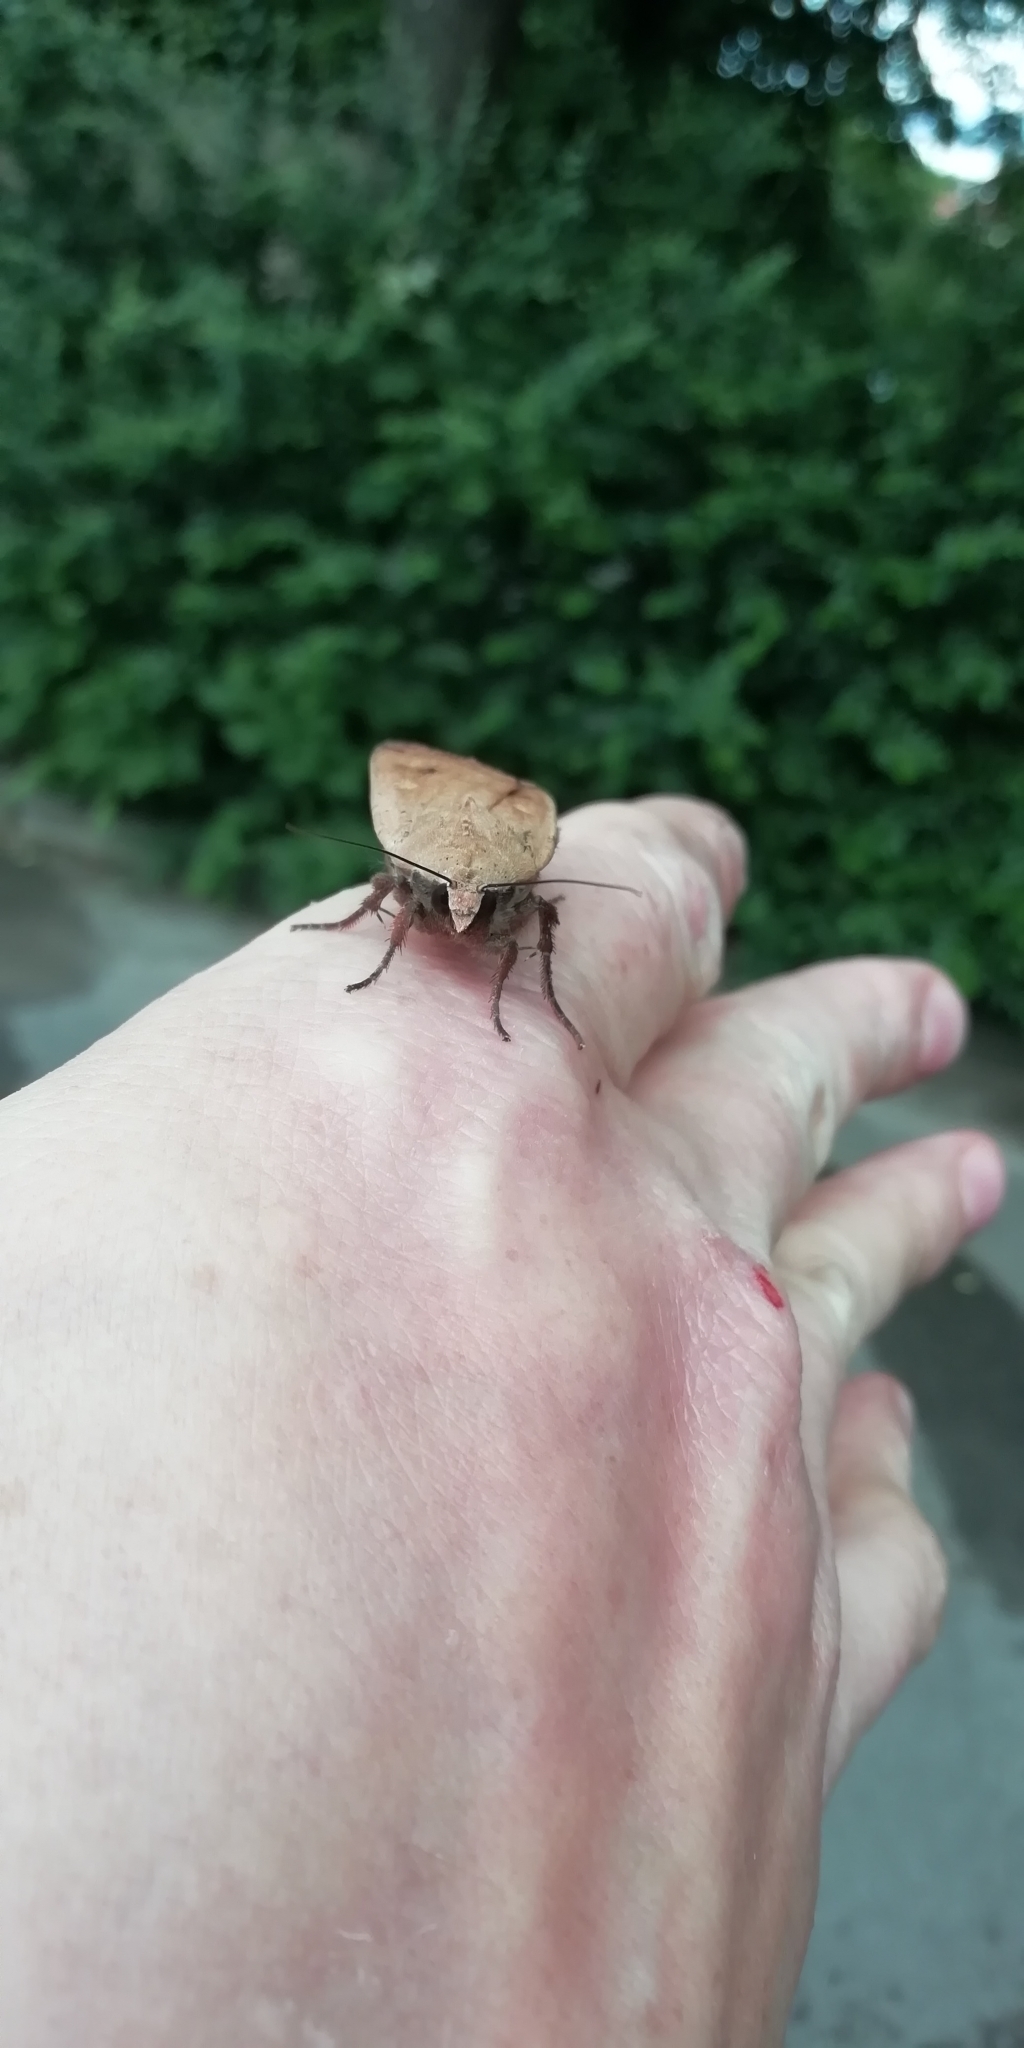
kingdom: Animalia
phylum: Arthropoda
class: Insecta
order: Lepidoptera
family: Noctuidae
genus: Noctua
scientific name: Noctua pronuba
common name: Large yellow underwing
